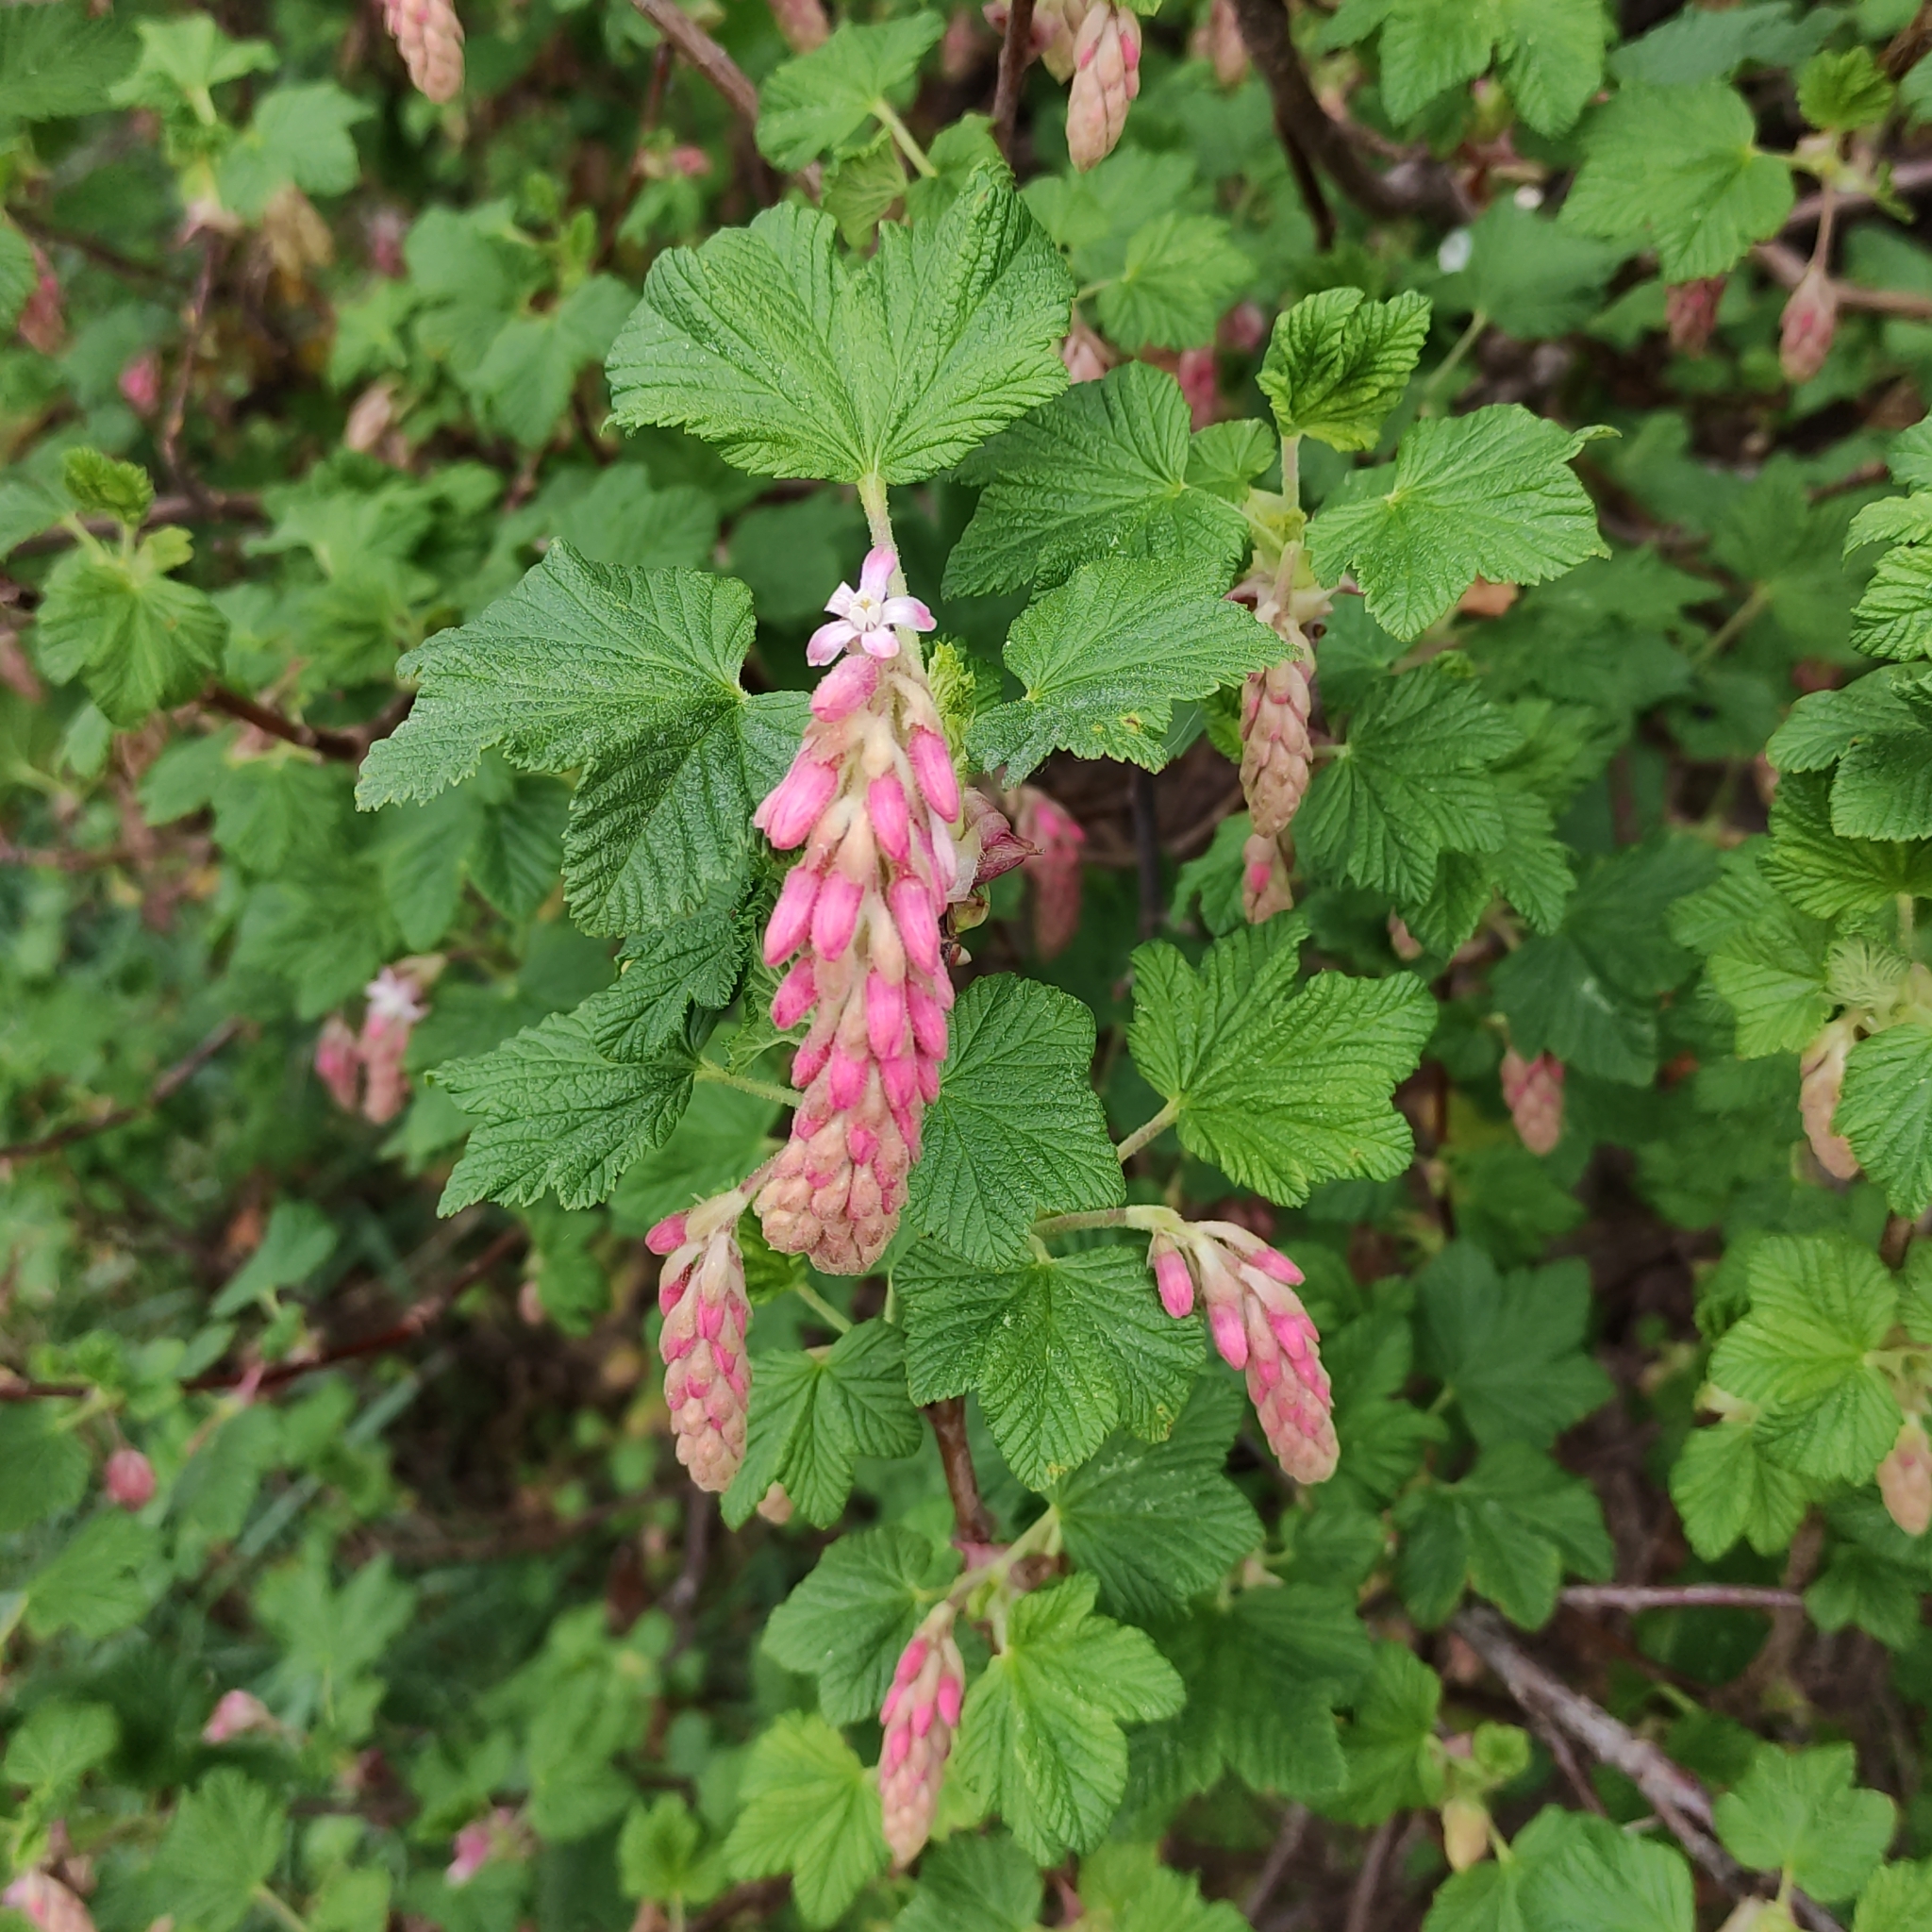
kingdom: Plantae
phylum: Tracheophyta
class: Magnoliopsida
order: Saxifragales
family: Grossulariaceae
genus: Ribes
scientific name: Ribes sanguineum
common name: Flowering currant
